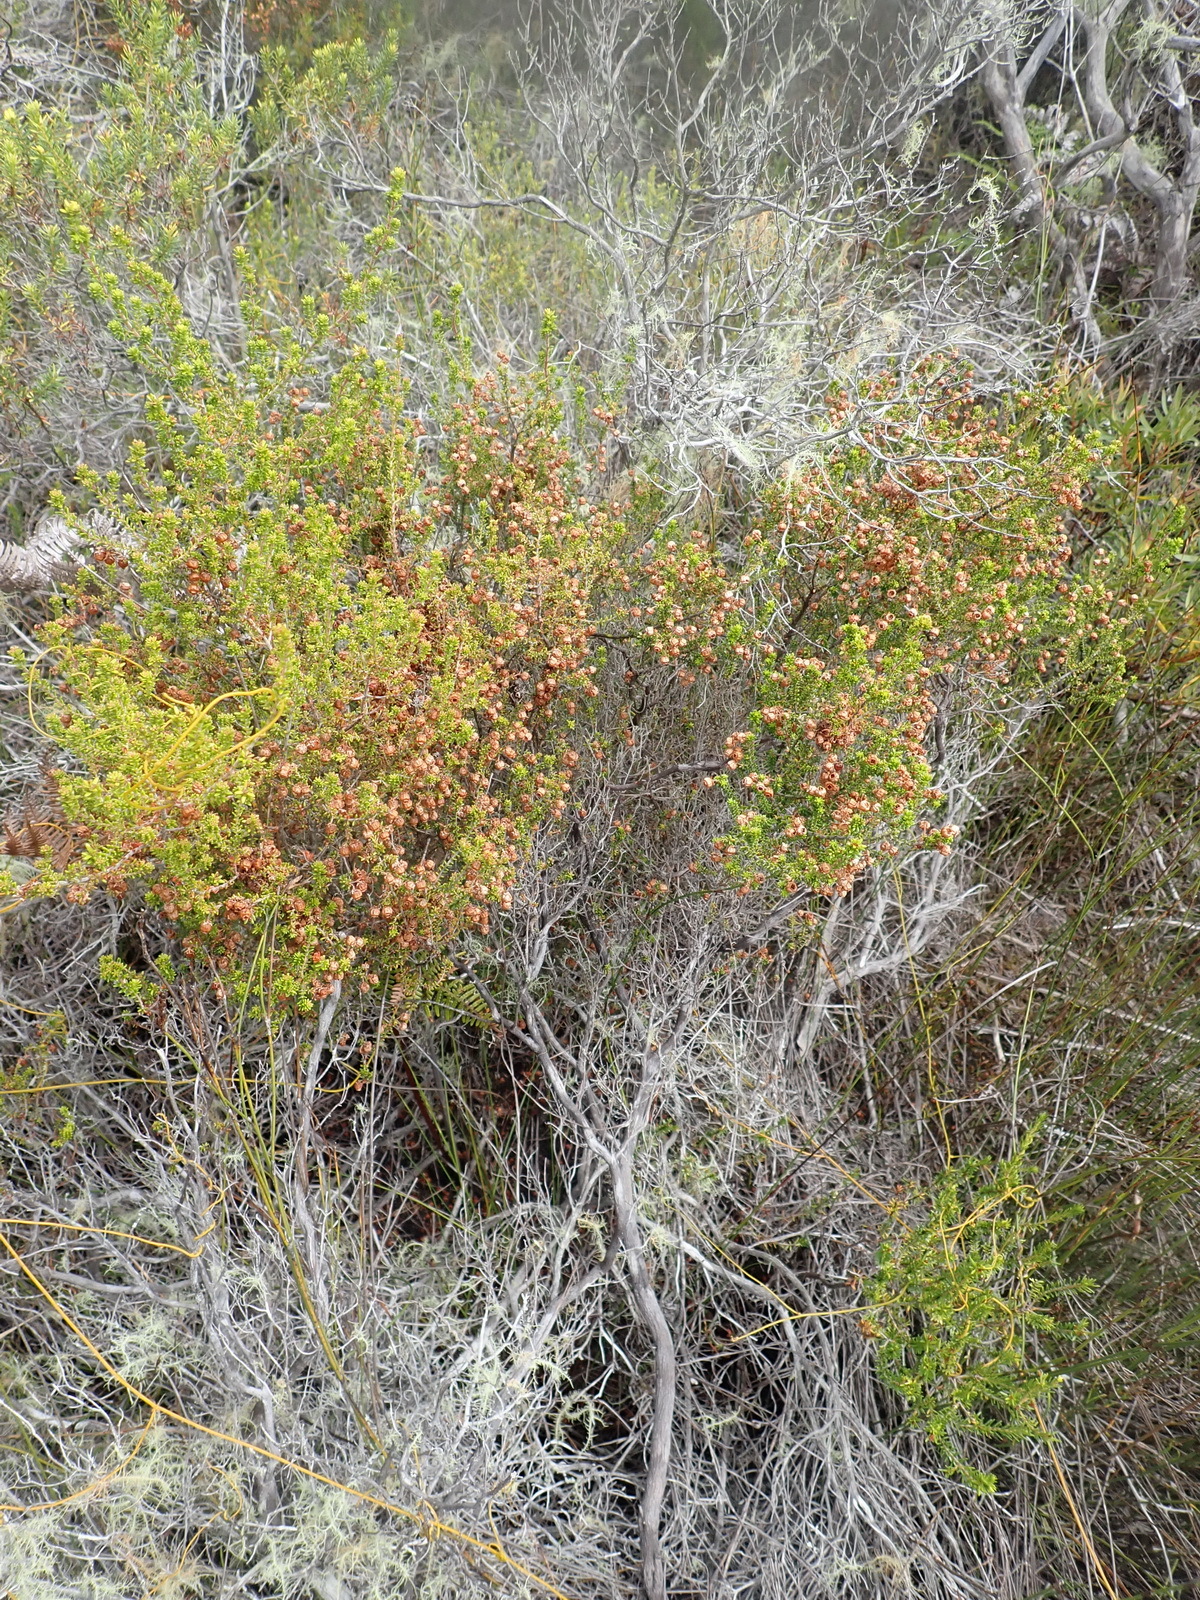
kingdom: Plantae
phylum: Tracheophyta
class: Magnoliopsida
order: Ericales
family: Ericaceae
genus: Erica
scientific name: Erica formosa
